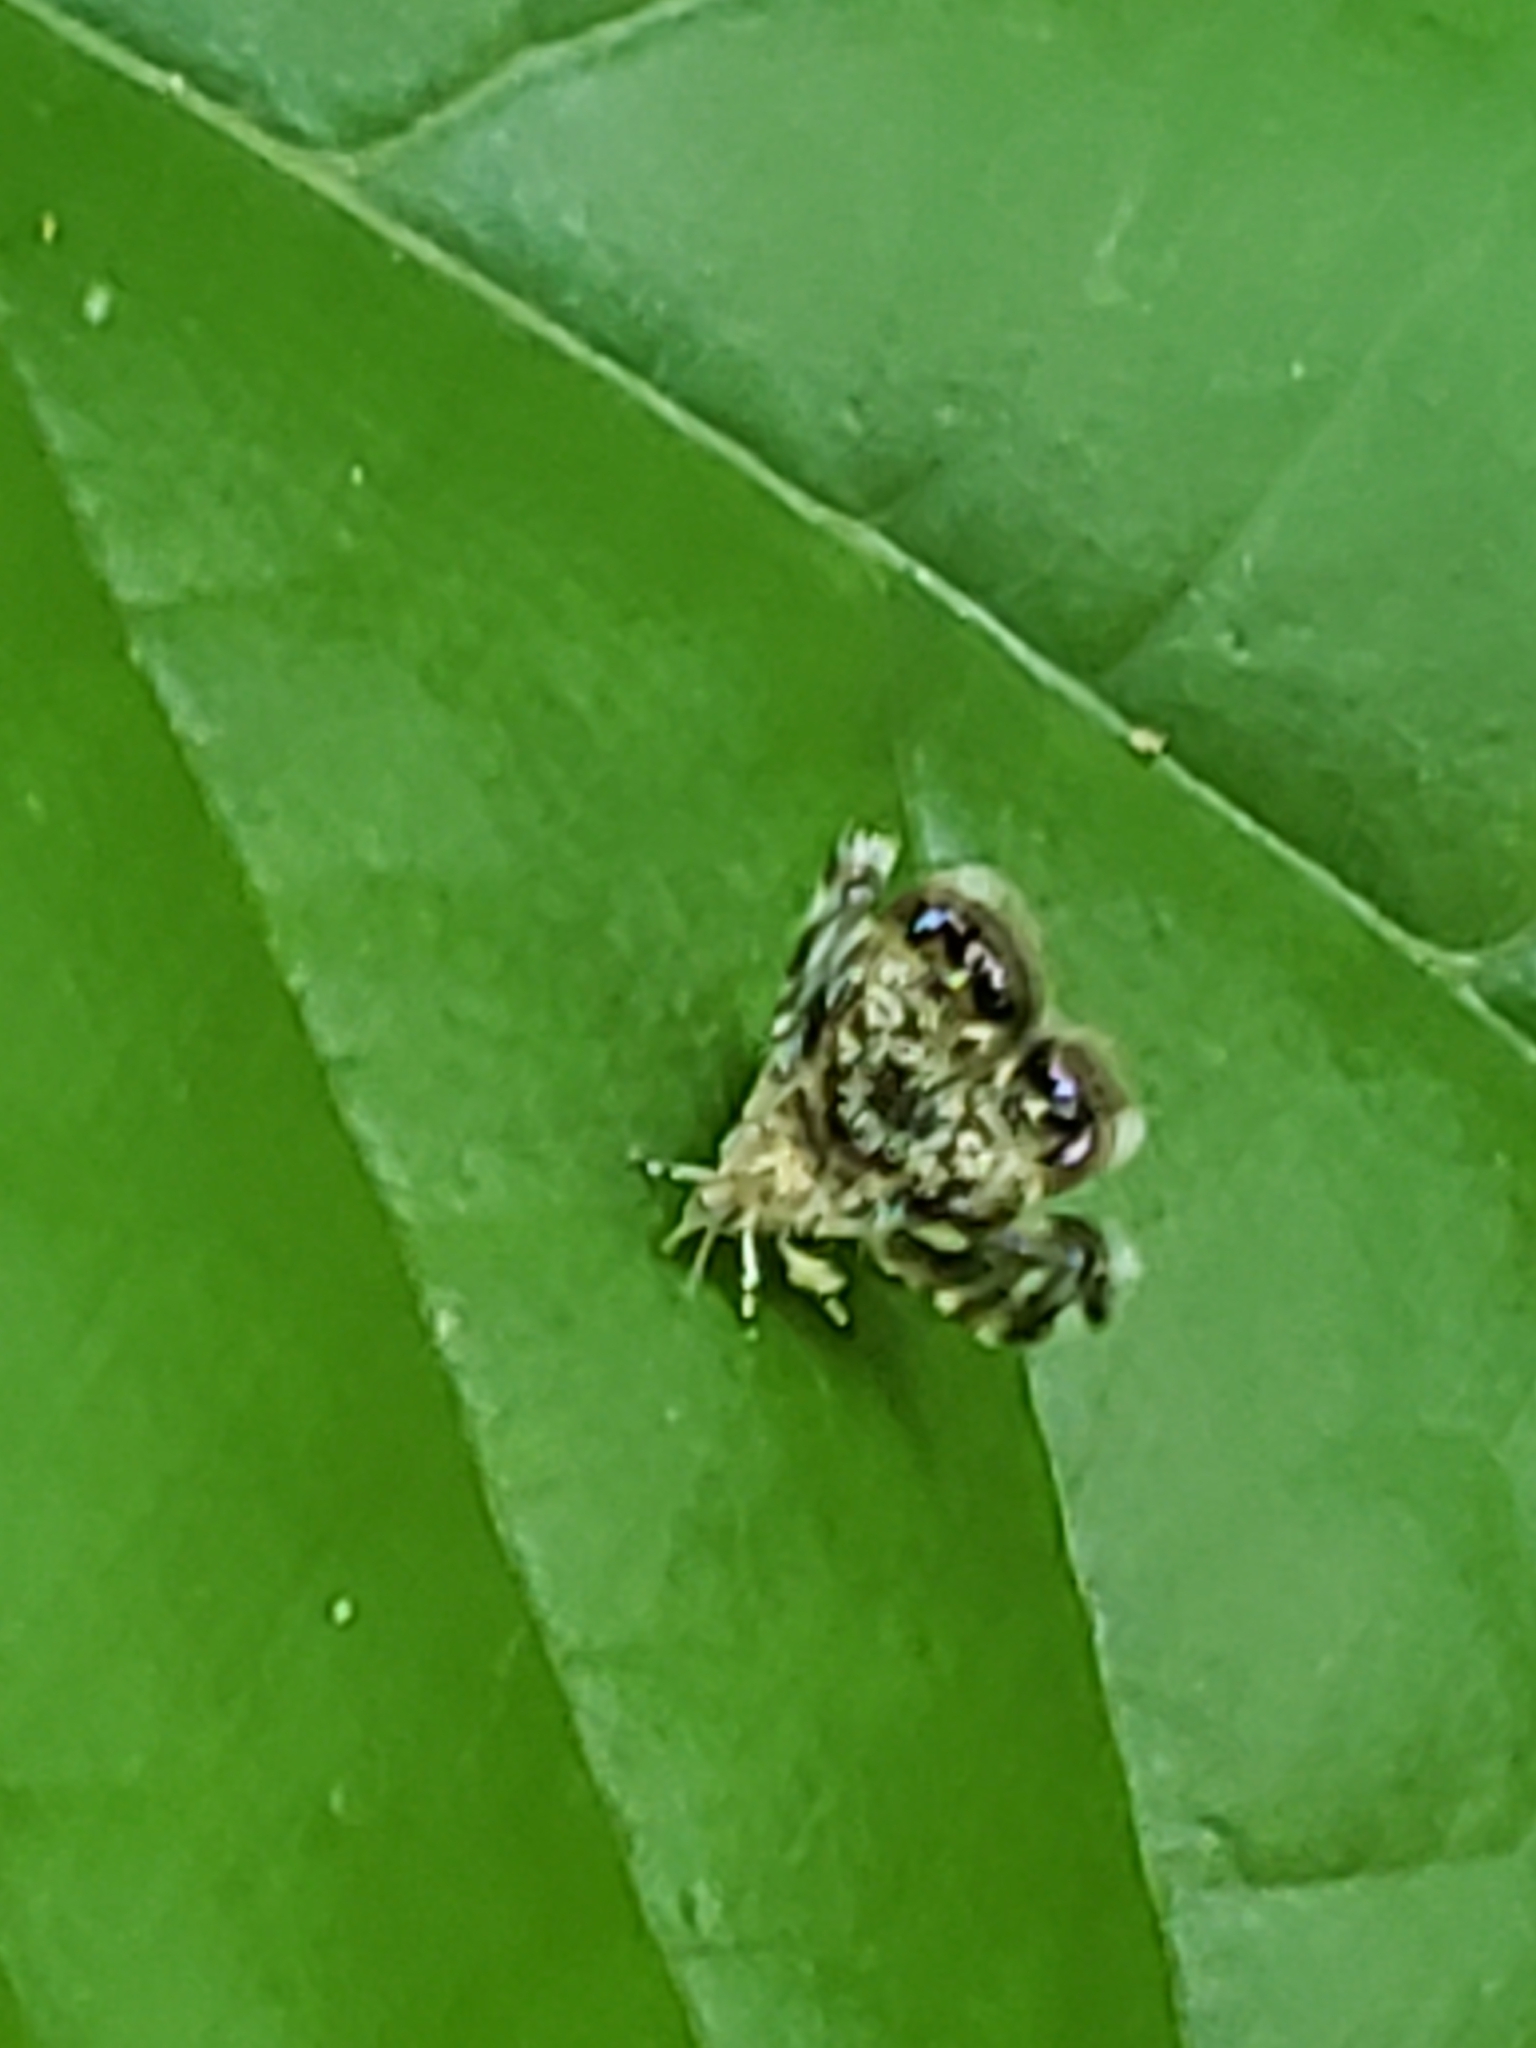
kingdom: Animalia
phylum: Arthropoda
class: Insecta
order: Lepidoptera
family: Choreutidae
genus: Brenthia
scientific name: Brenthia pavonacella
